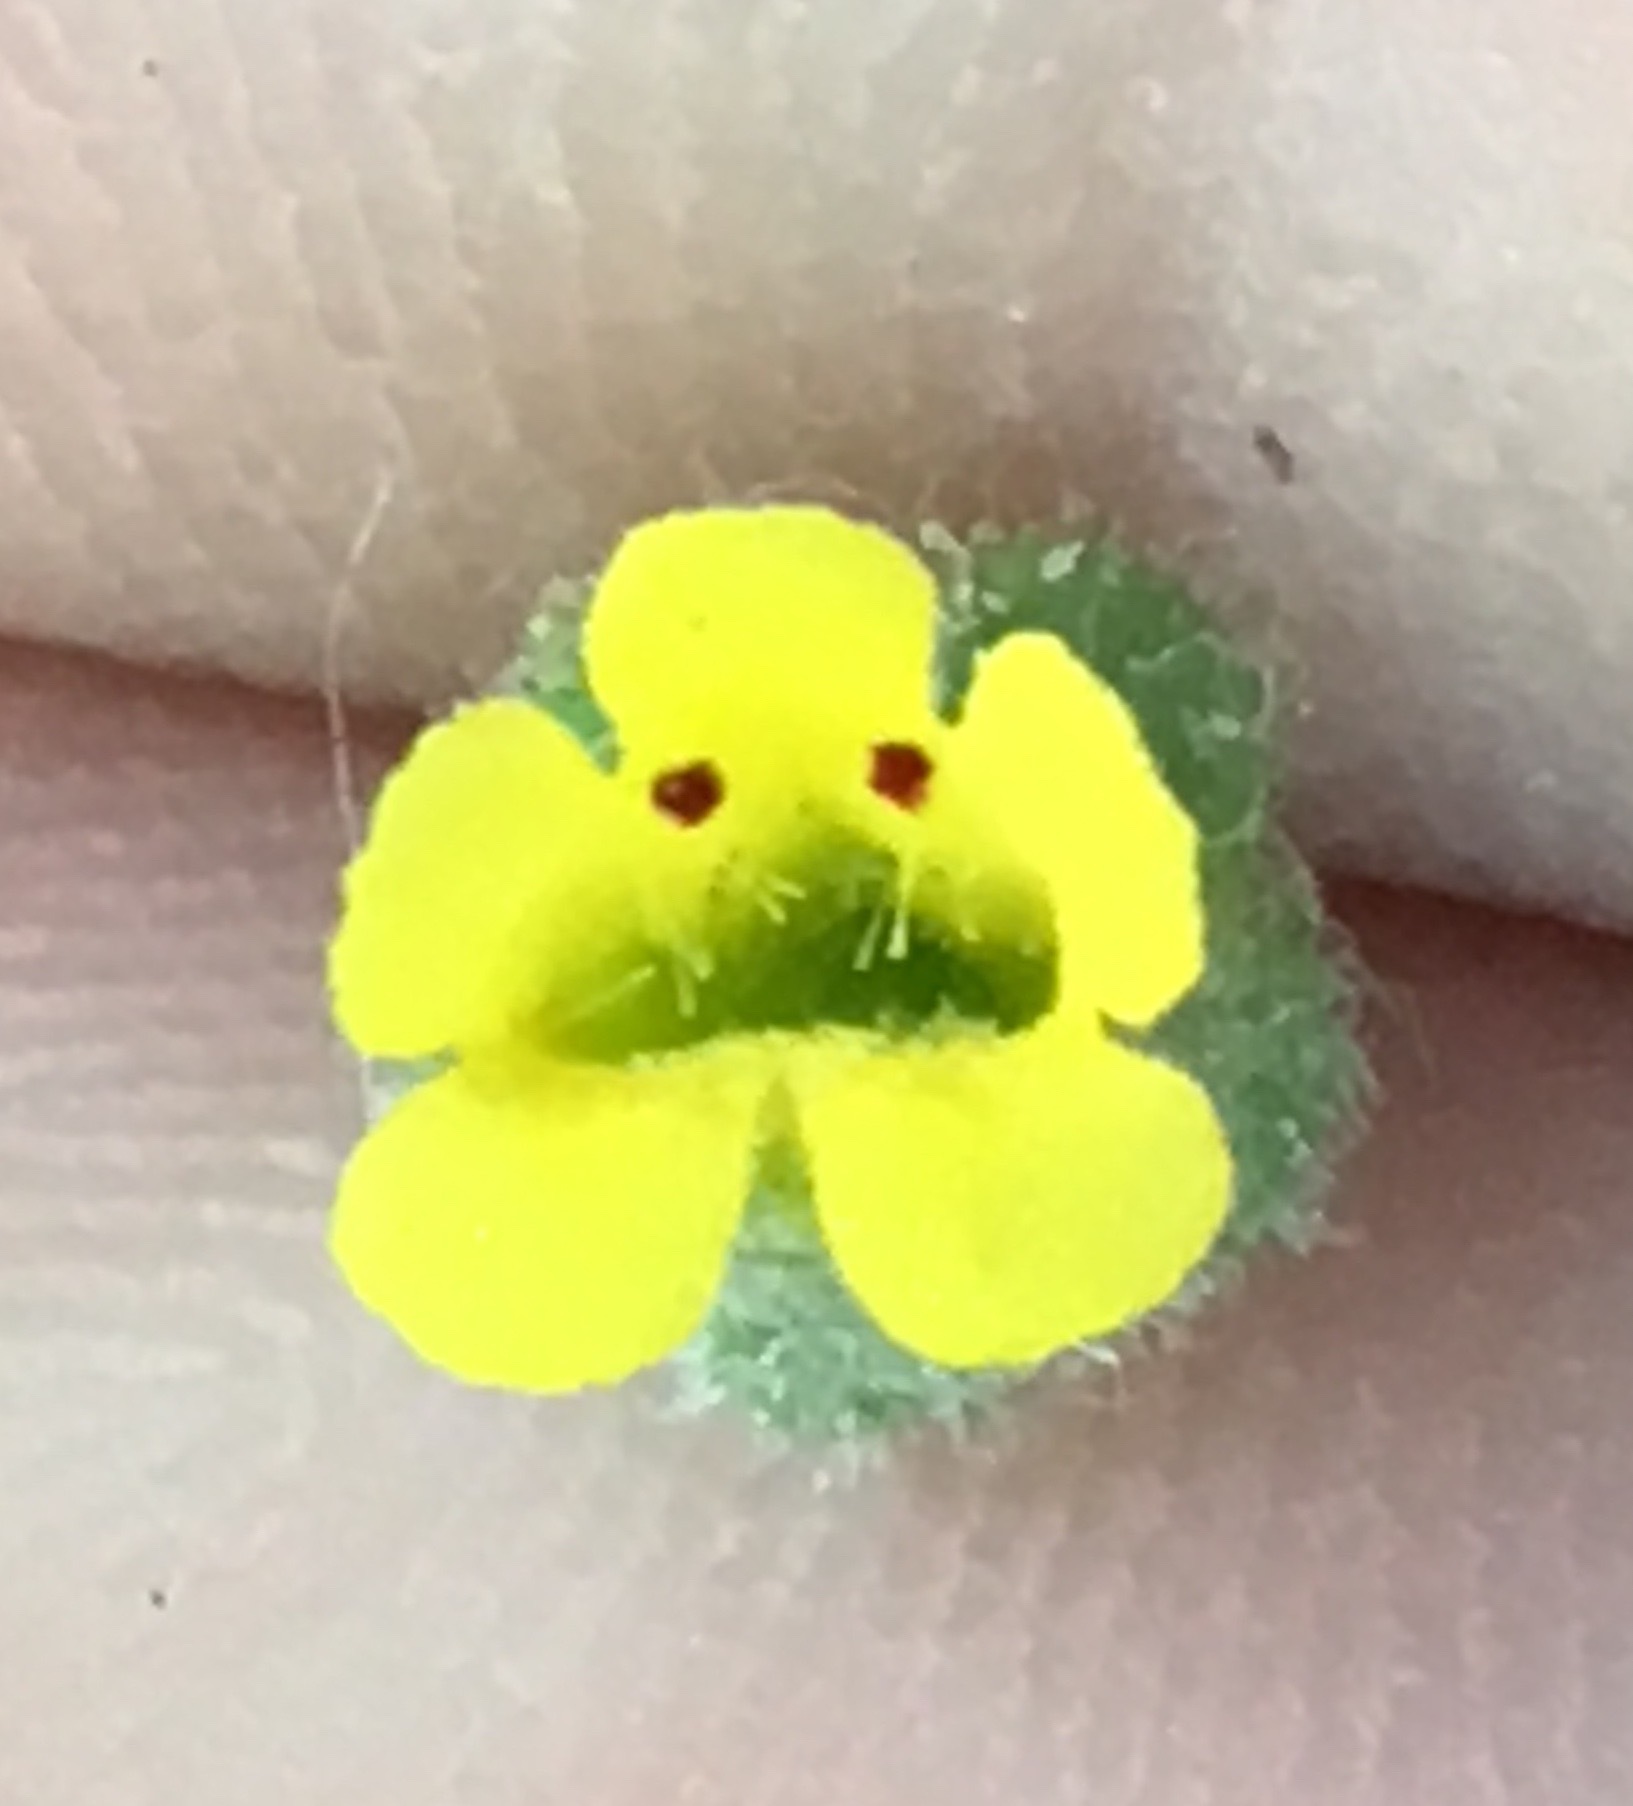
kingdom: Plantae
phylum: Tracheophyta
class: Magnoliopsida
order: Lamiales
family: Phrymaceae
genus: Mimetanthe
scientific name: Mimetanthe pilosa
